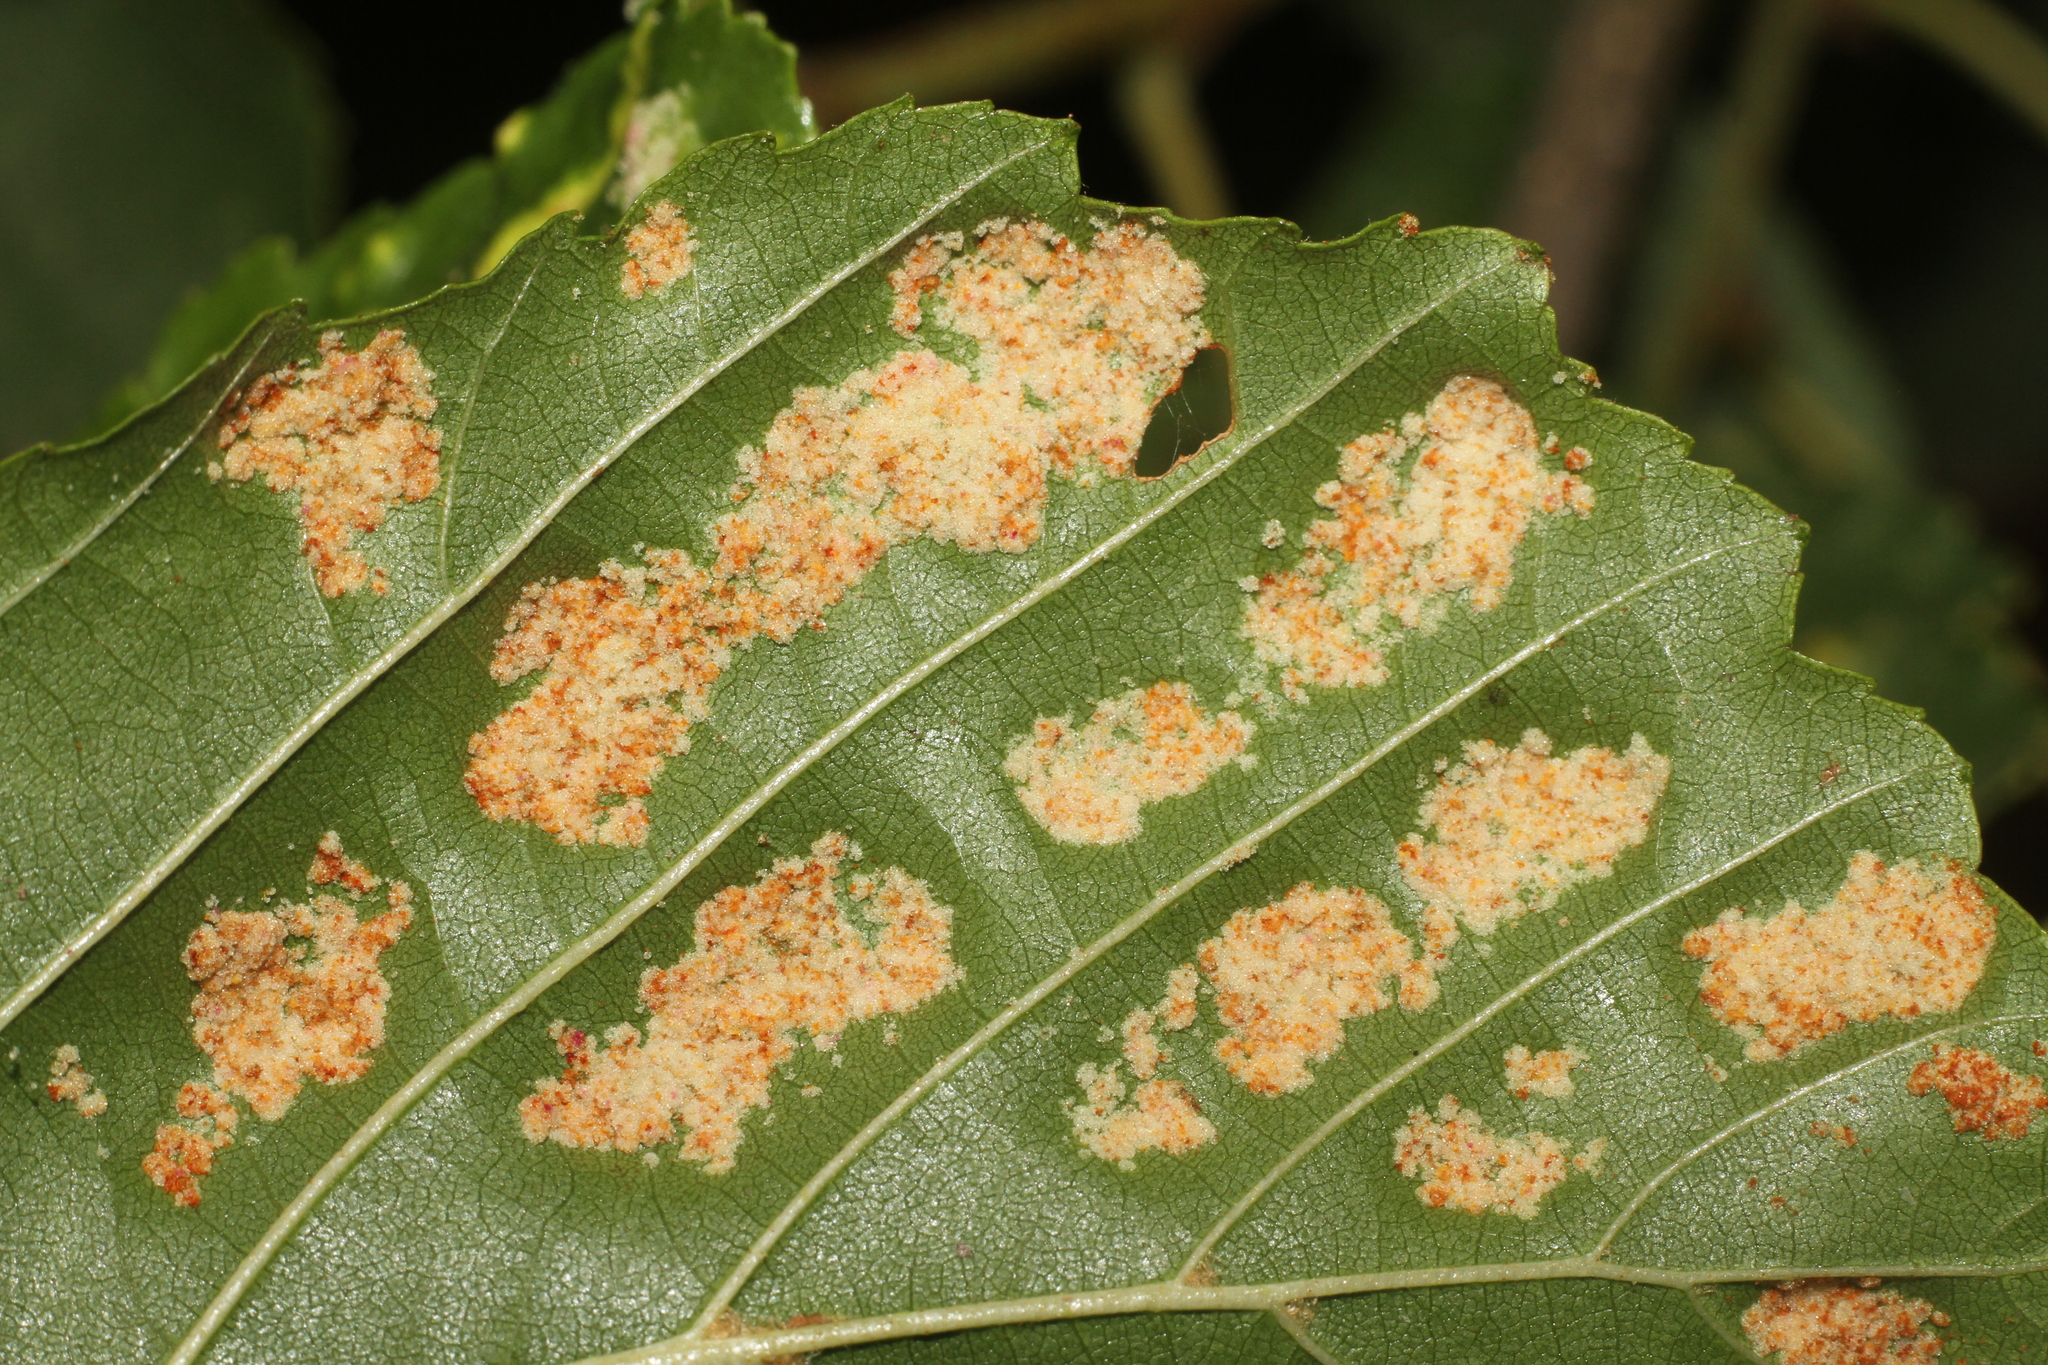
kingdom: Animalia
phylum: Arthropoda
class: Arachnida
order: Trombidiformes
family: Eriophyidae
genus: Acalitus
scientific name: Acalitus brevitarsus
